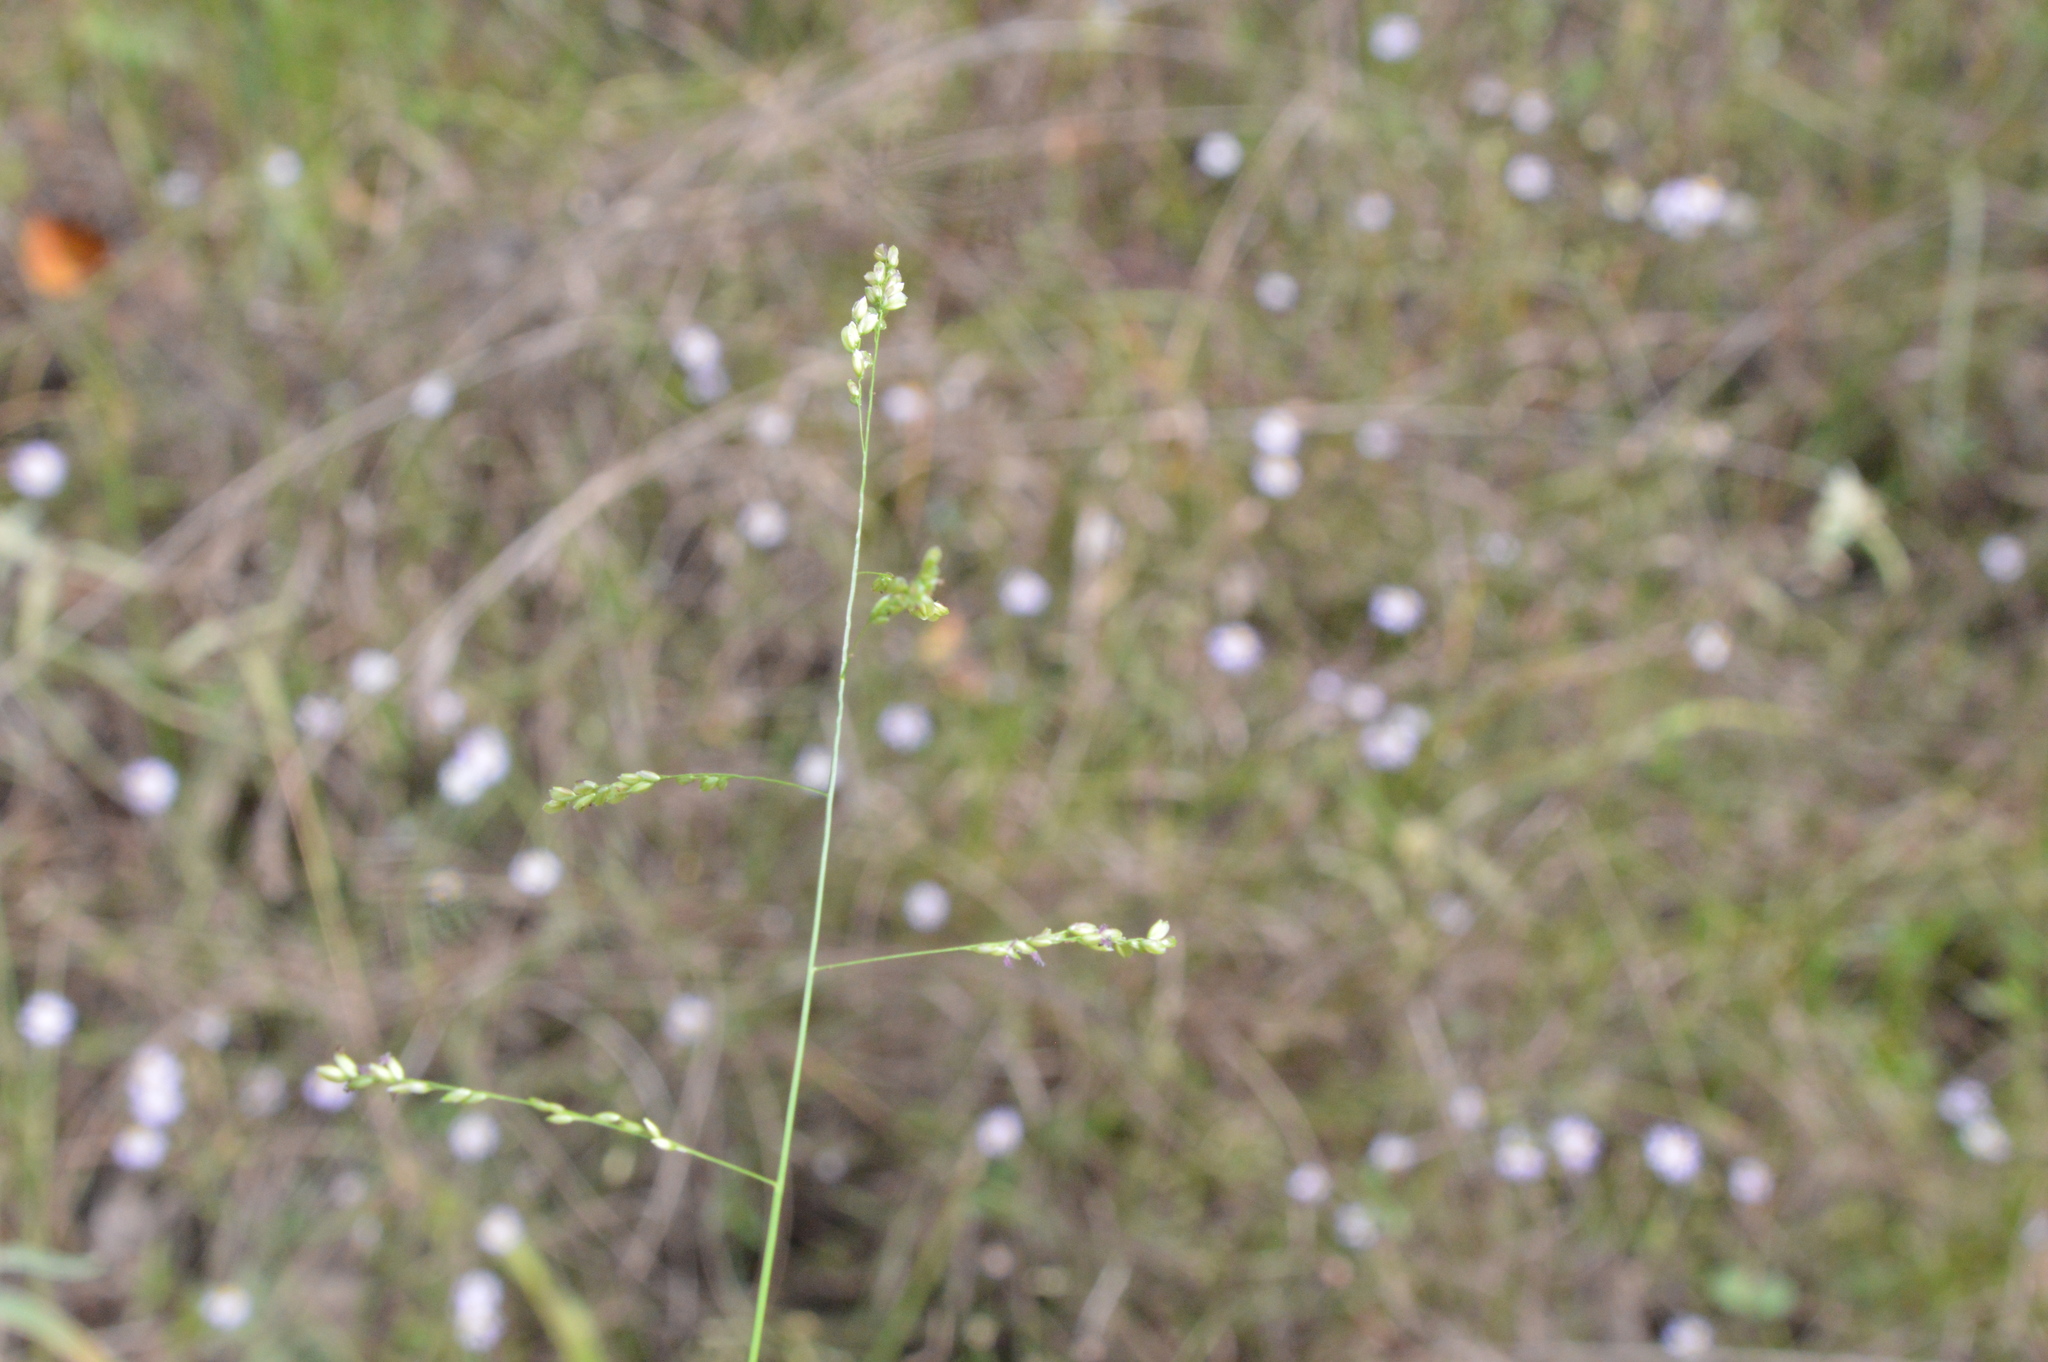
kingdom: Plantae
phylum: Tracheophyta
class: Liliopsida
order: Poales
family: Poaceae
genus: Steinchisma
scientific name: Steinchisma hians
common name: Gaping panic grass
